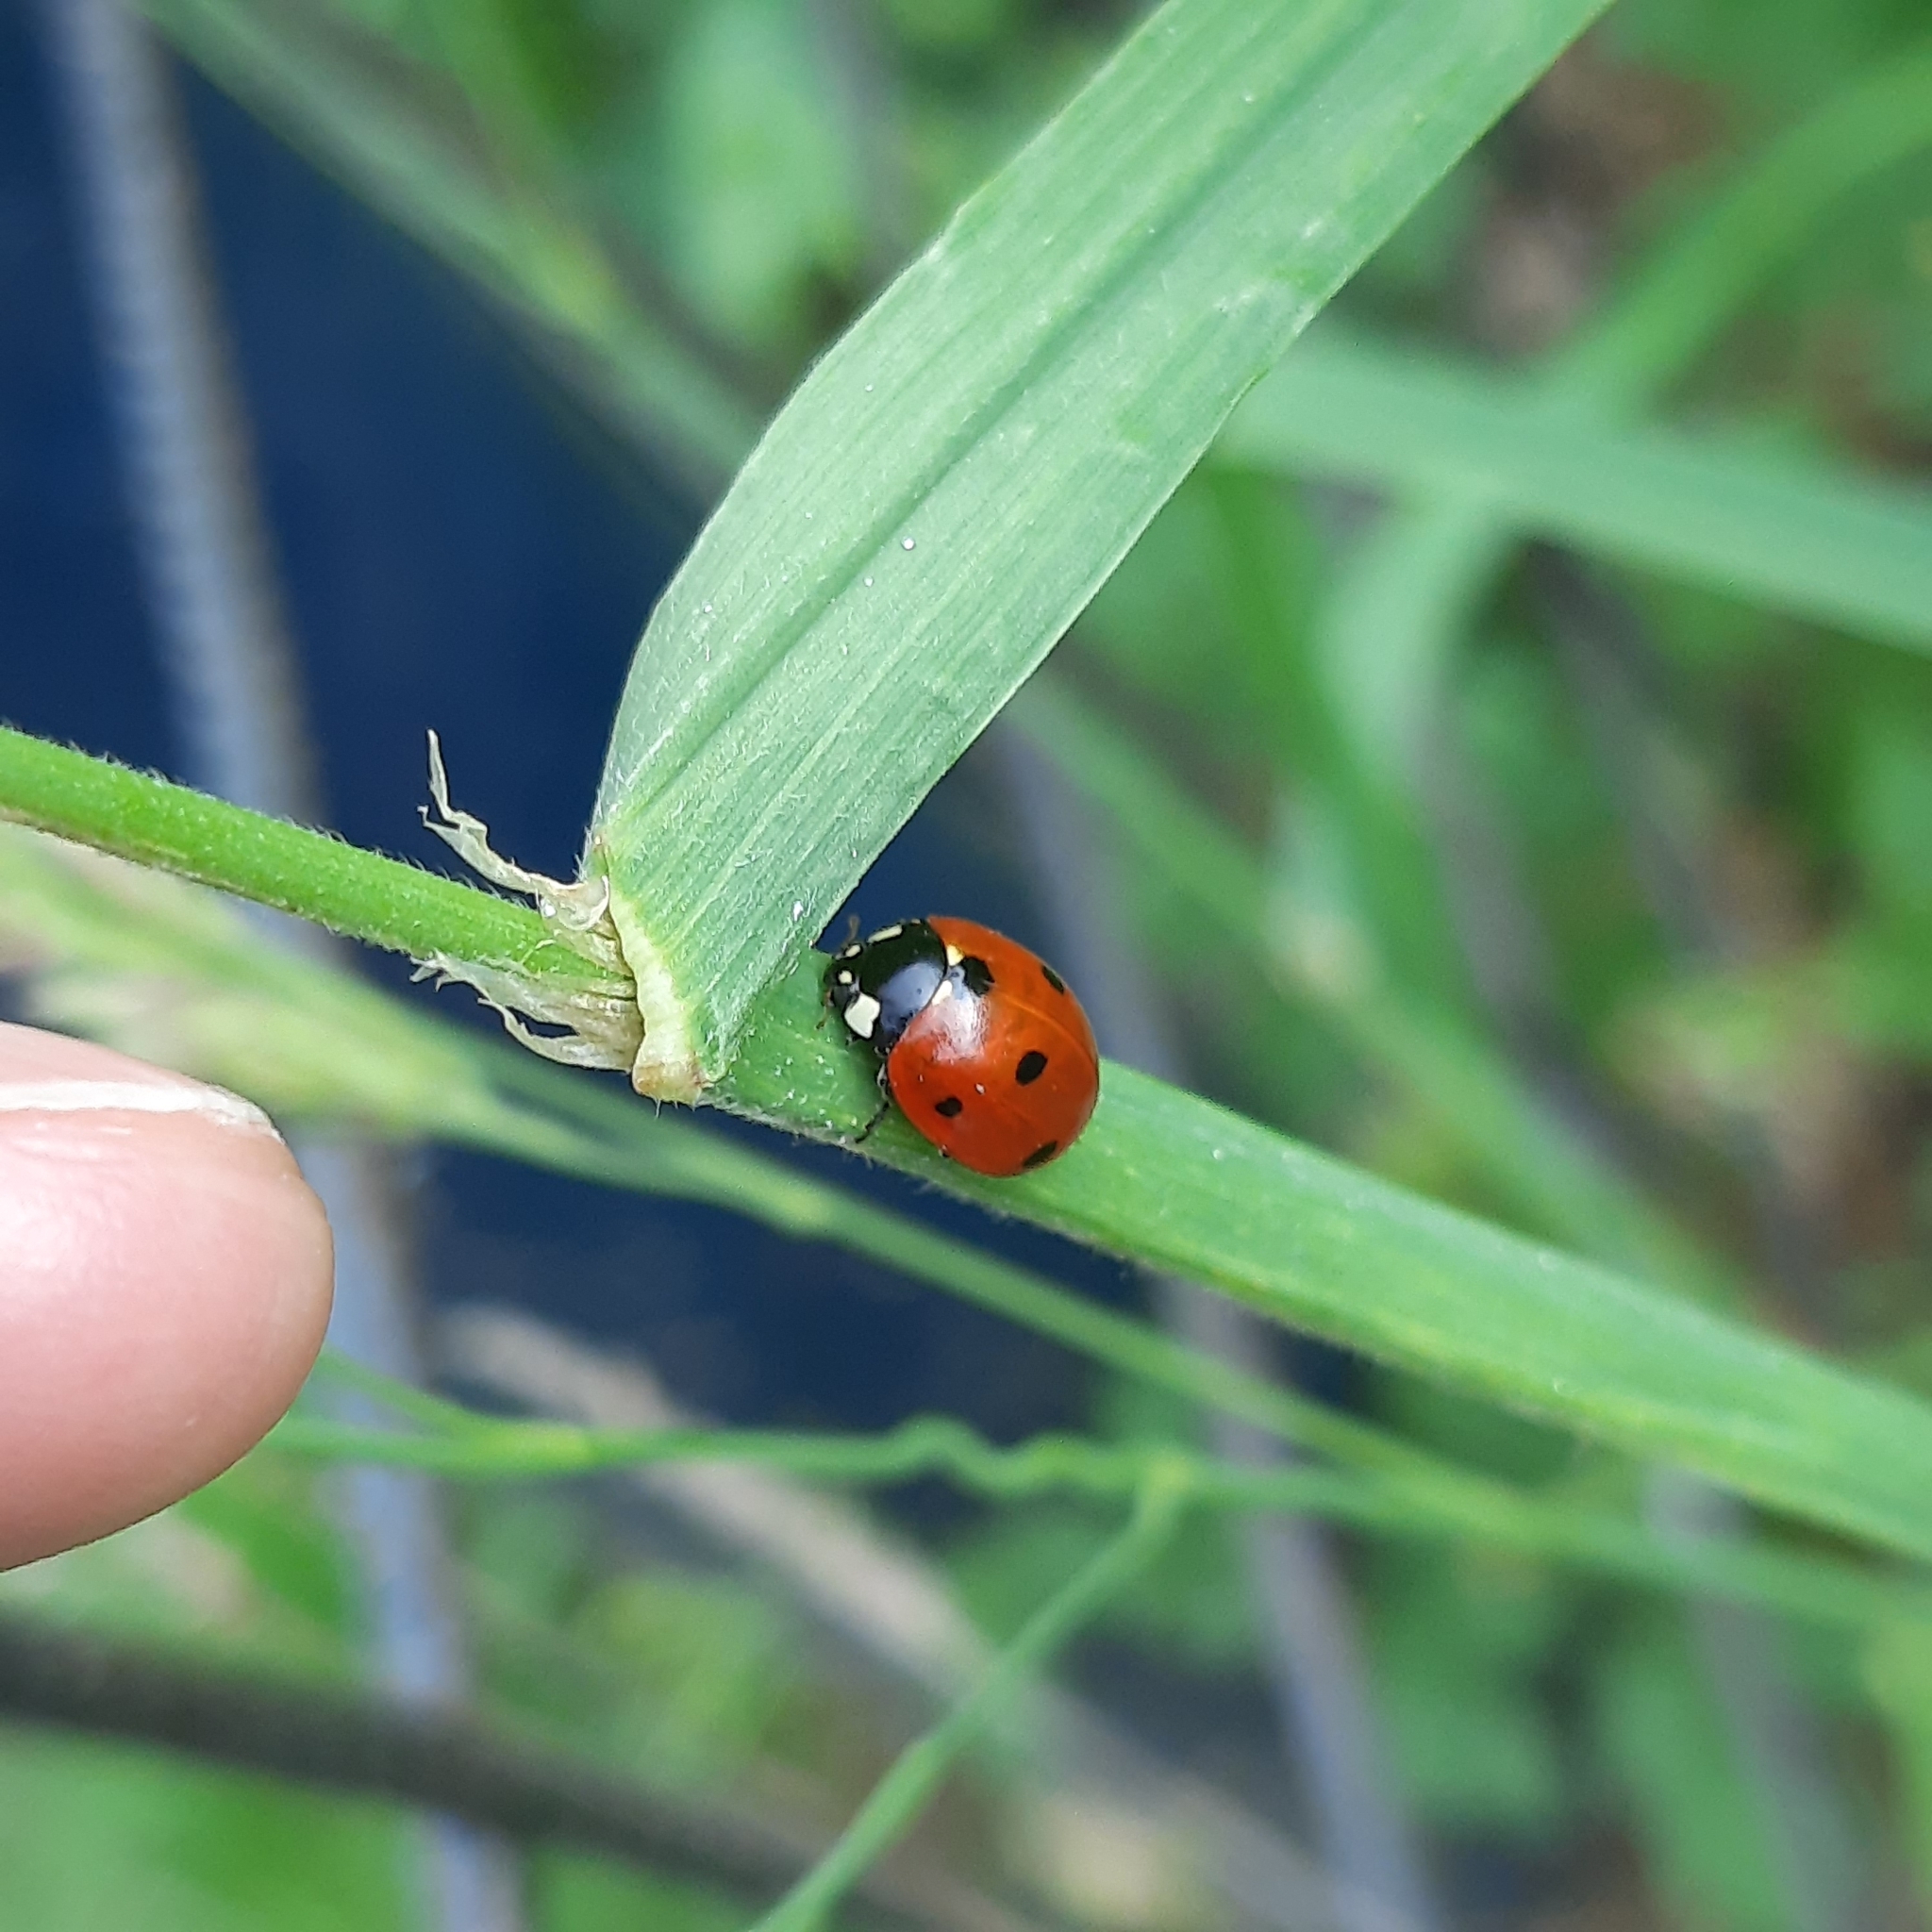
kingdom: Animalia
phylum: Arthropoda
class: Insecta
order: Coleoptera
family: Coccinellidae
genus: Coccinella
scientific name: Coccinella septempunctata
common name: Sevenspotted lady beetle
